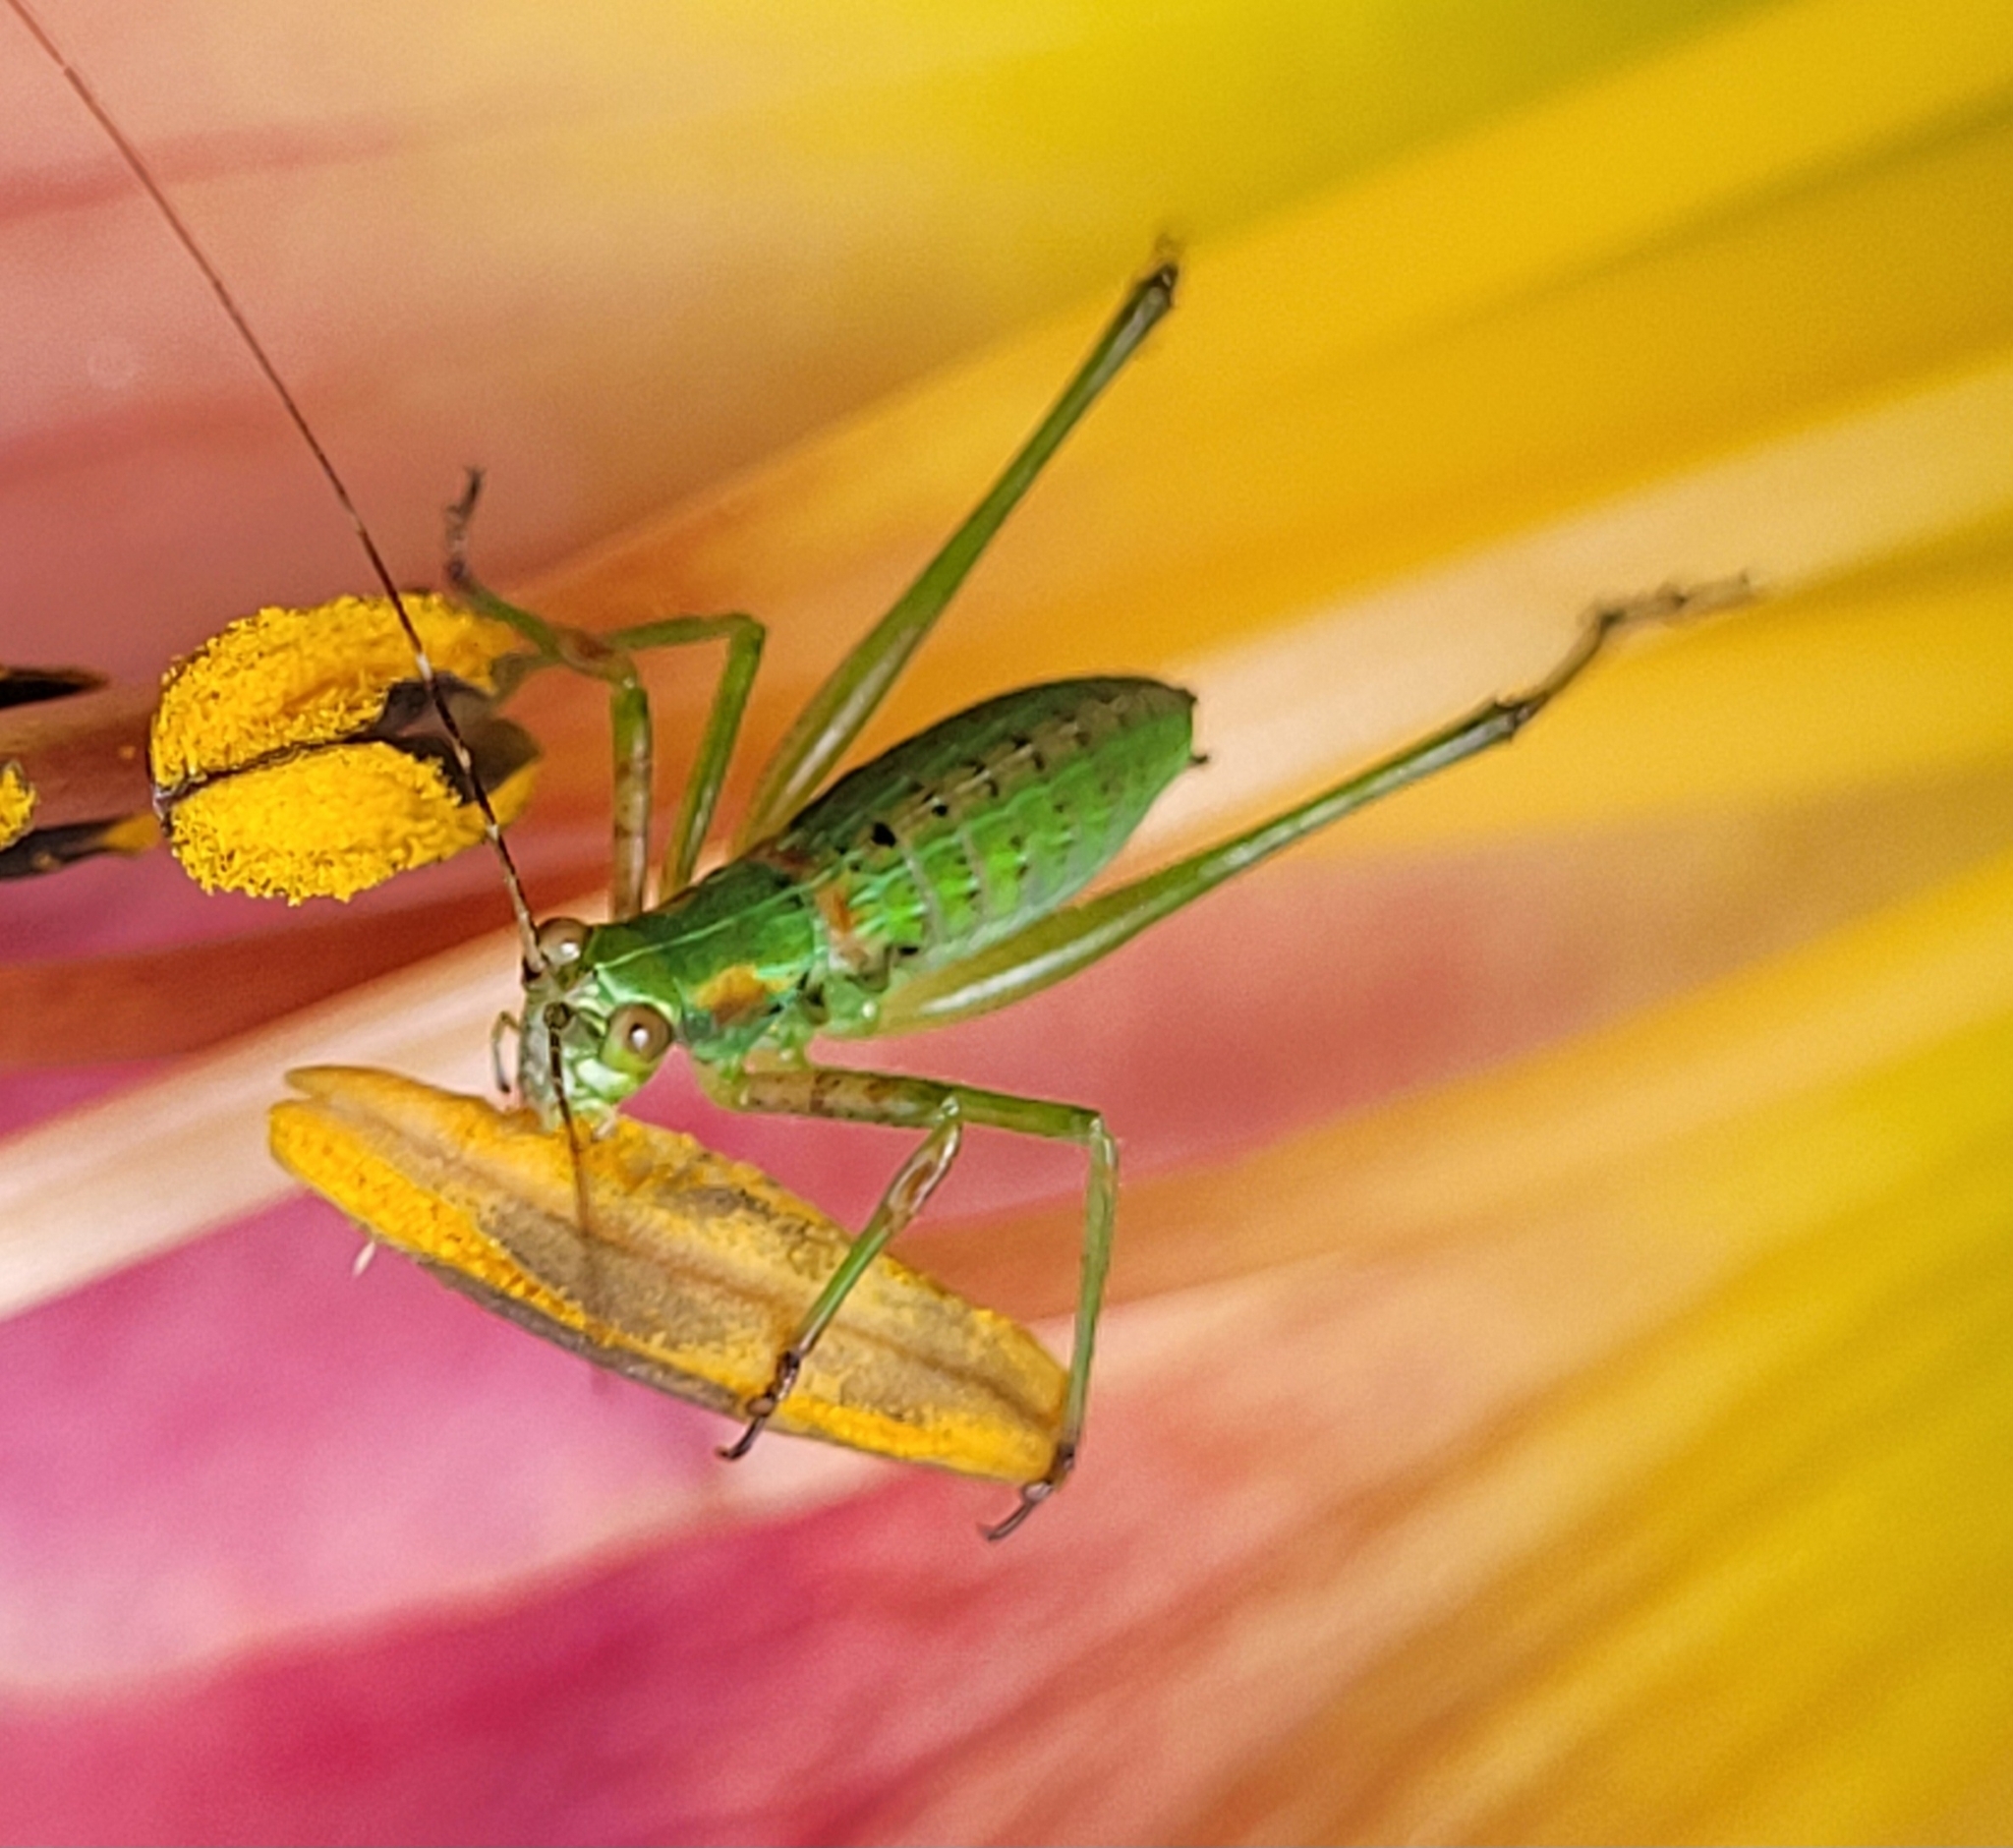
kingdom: Animalia
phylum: Arthropoda
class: Insecta
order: Orthoptera
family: Tettigoniidae
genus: Scudderia
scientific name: Scudderia
